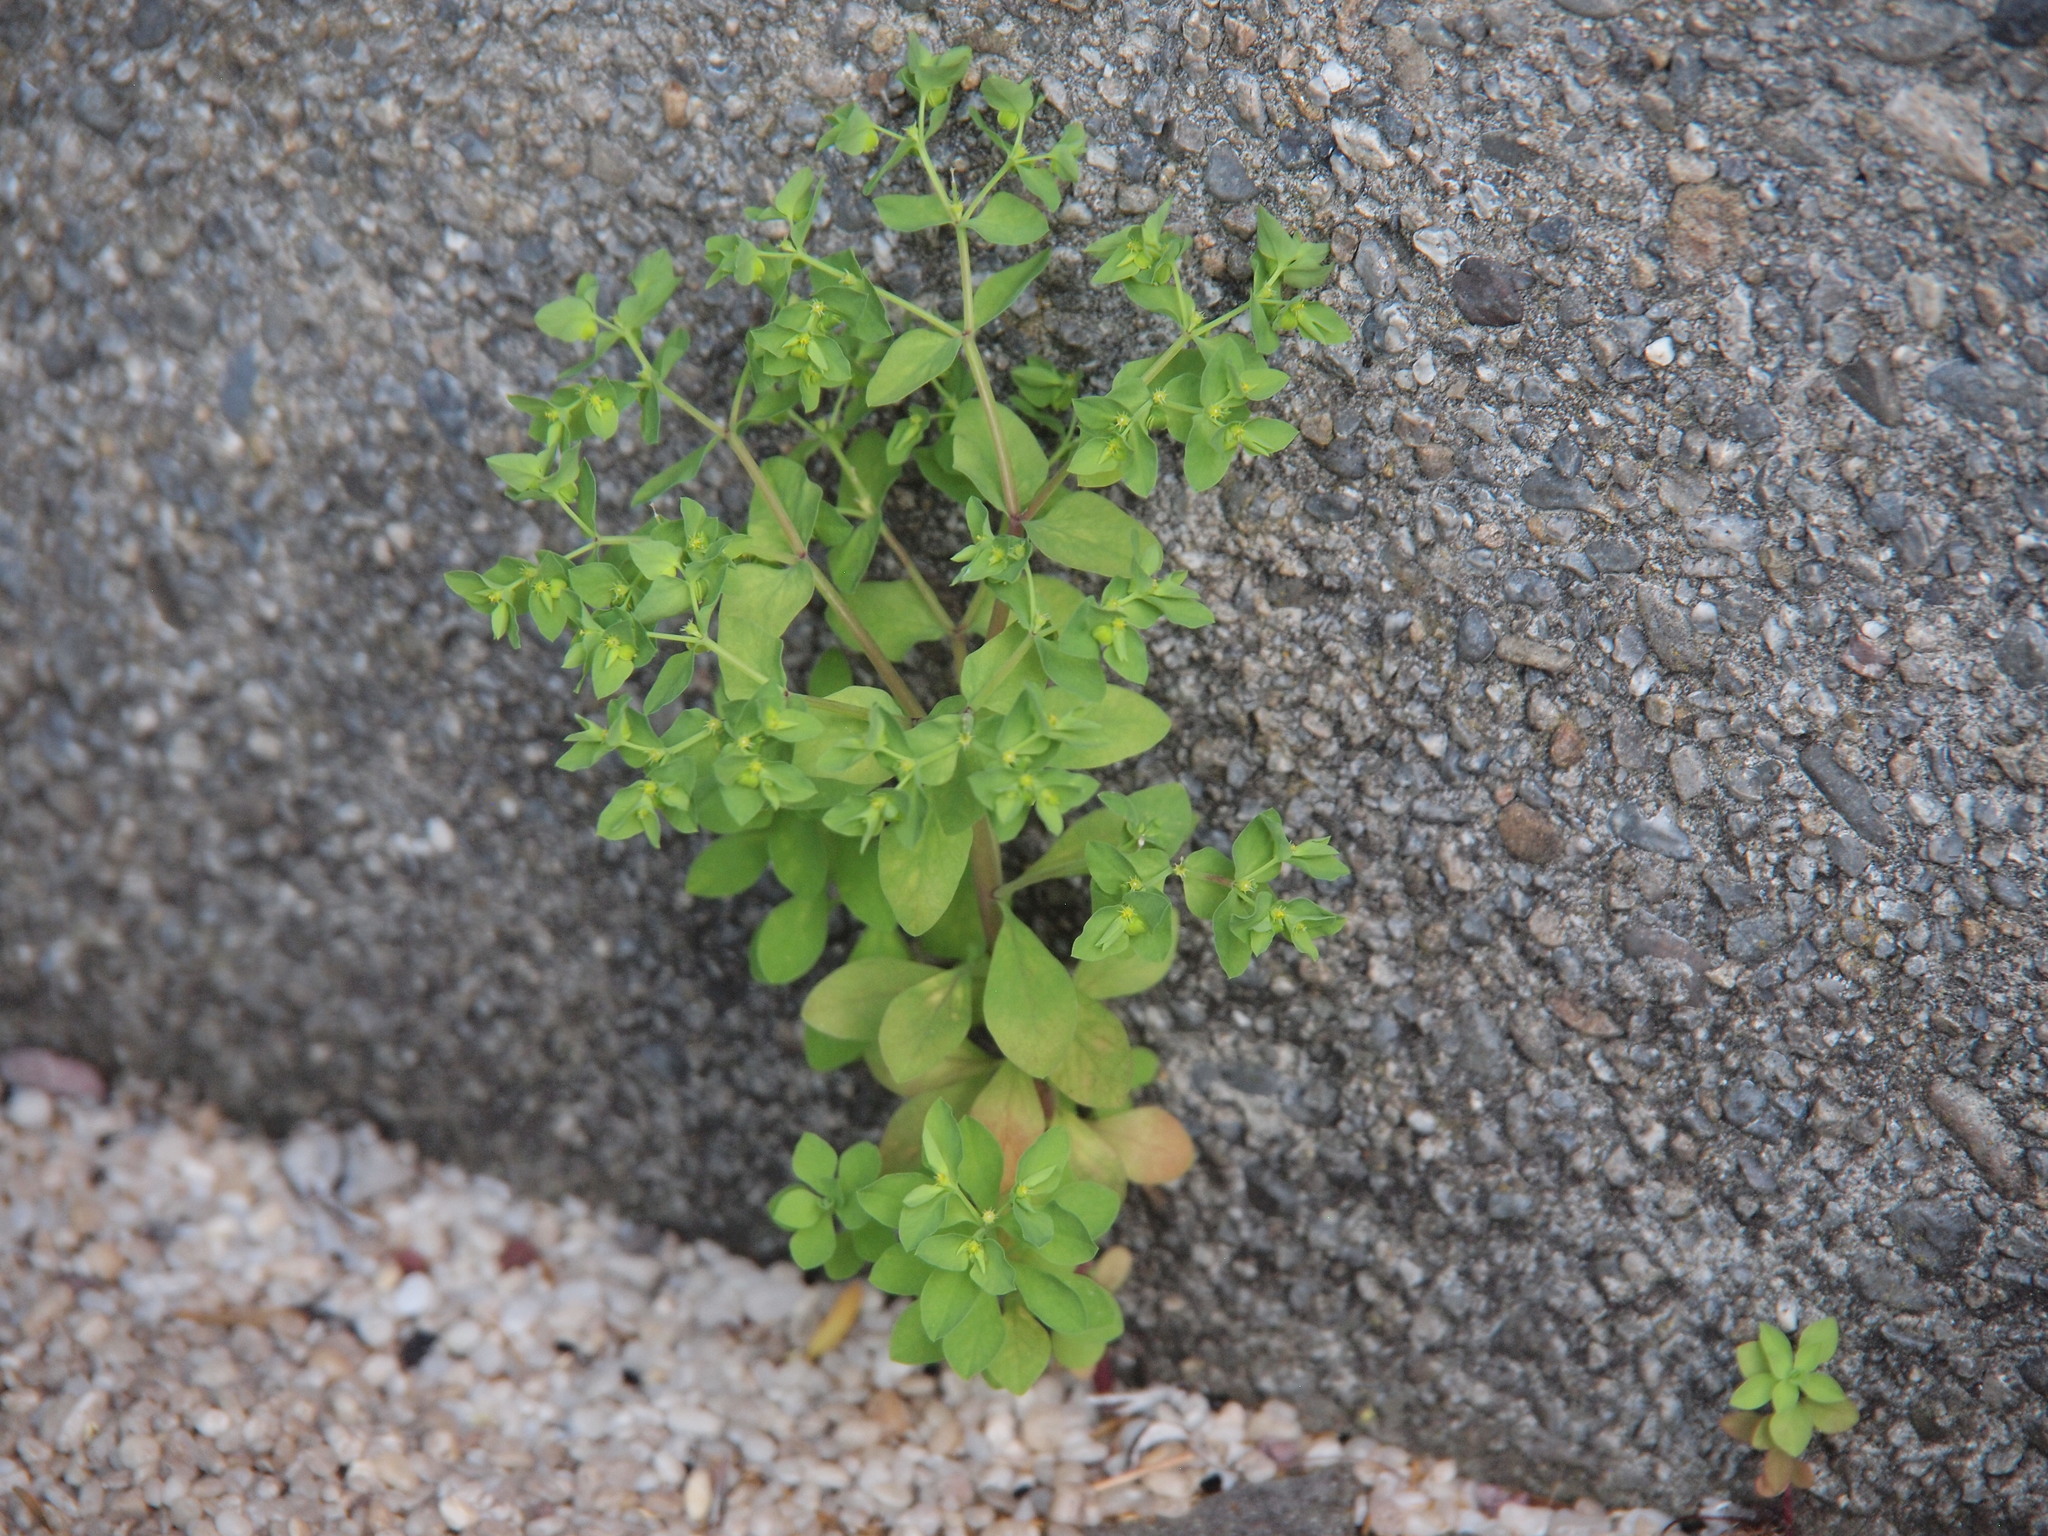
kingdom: Plantae
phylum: Tracheophyta
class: Magnoliopsida
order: Malpighiales
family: Euphorbiaceae
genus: Euphorbia
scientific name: Euphorbia peplus
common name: Petty spurge
